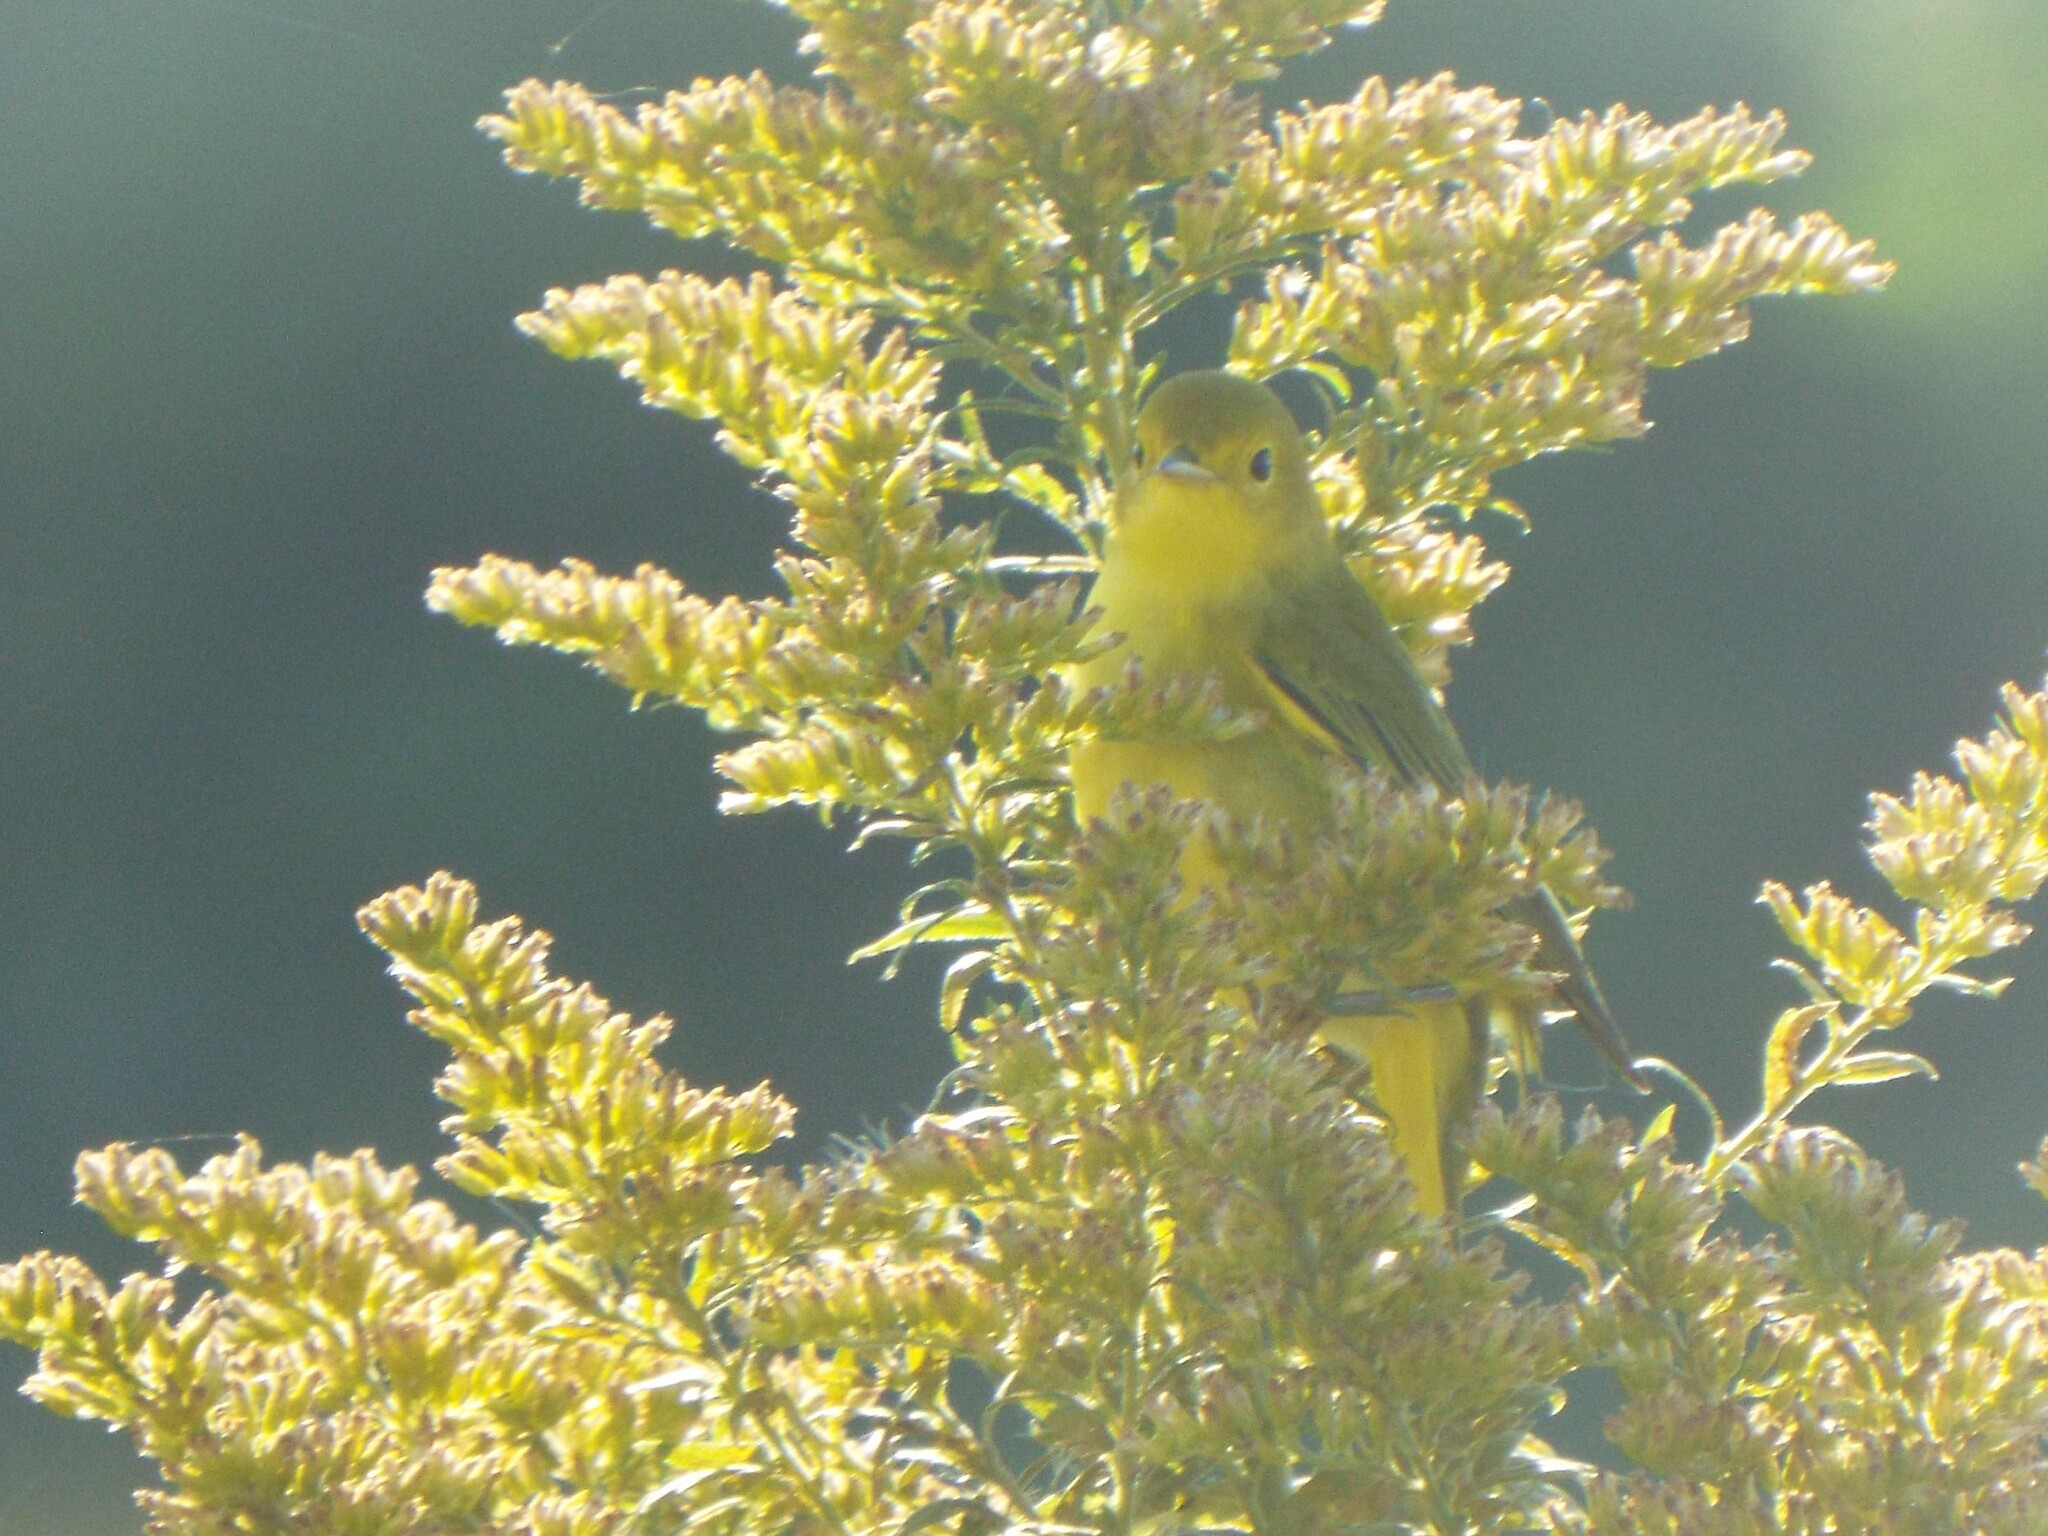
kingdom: Animalia
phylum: Chordata
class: Aves
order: Passeriformes
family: Parulidae
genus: Setophaga
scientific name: Setophaga petechia
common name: Yellow warbler
